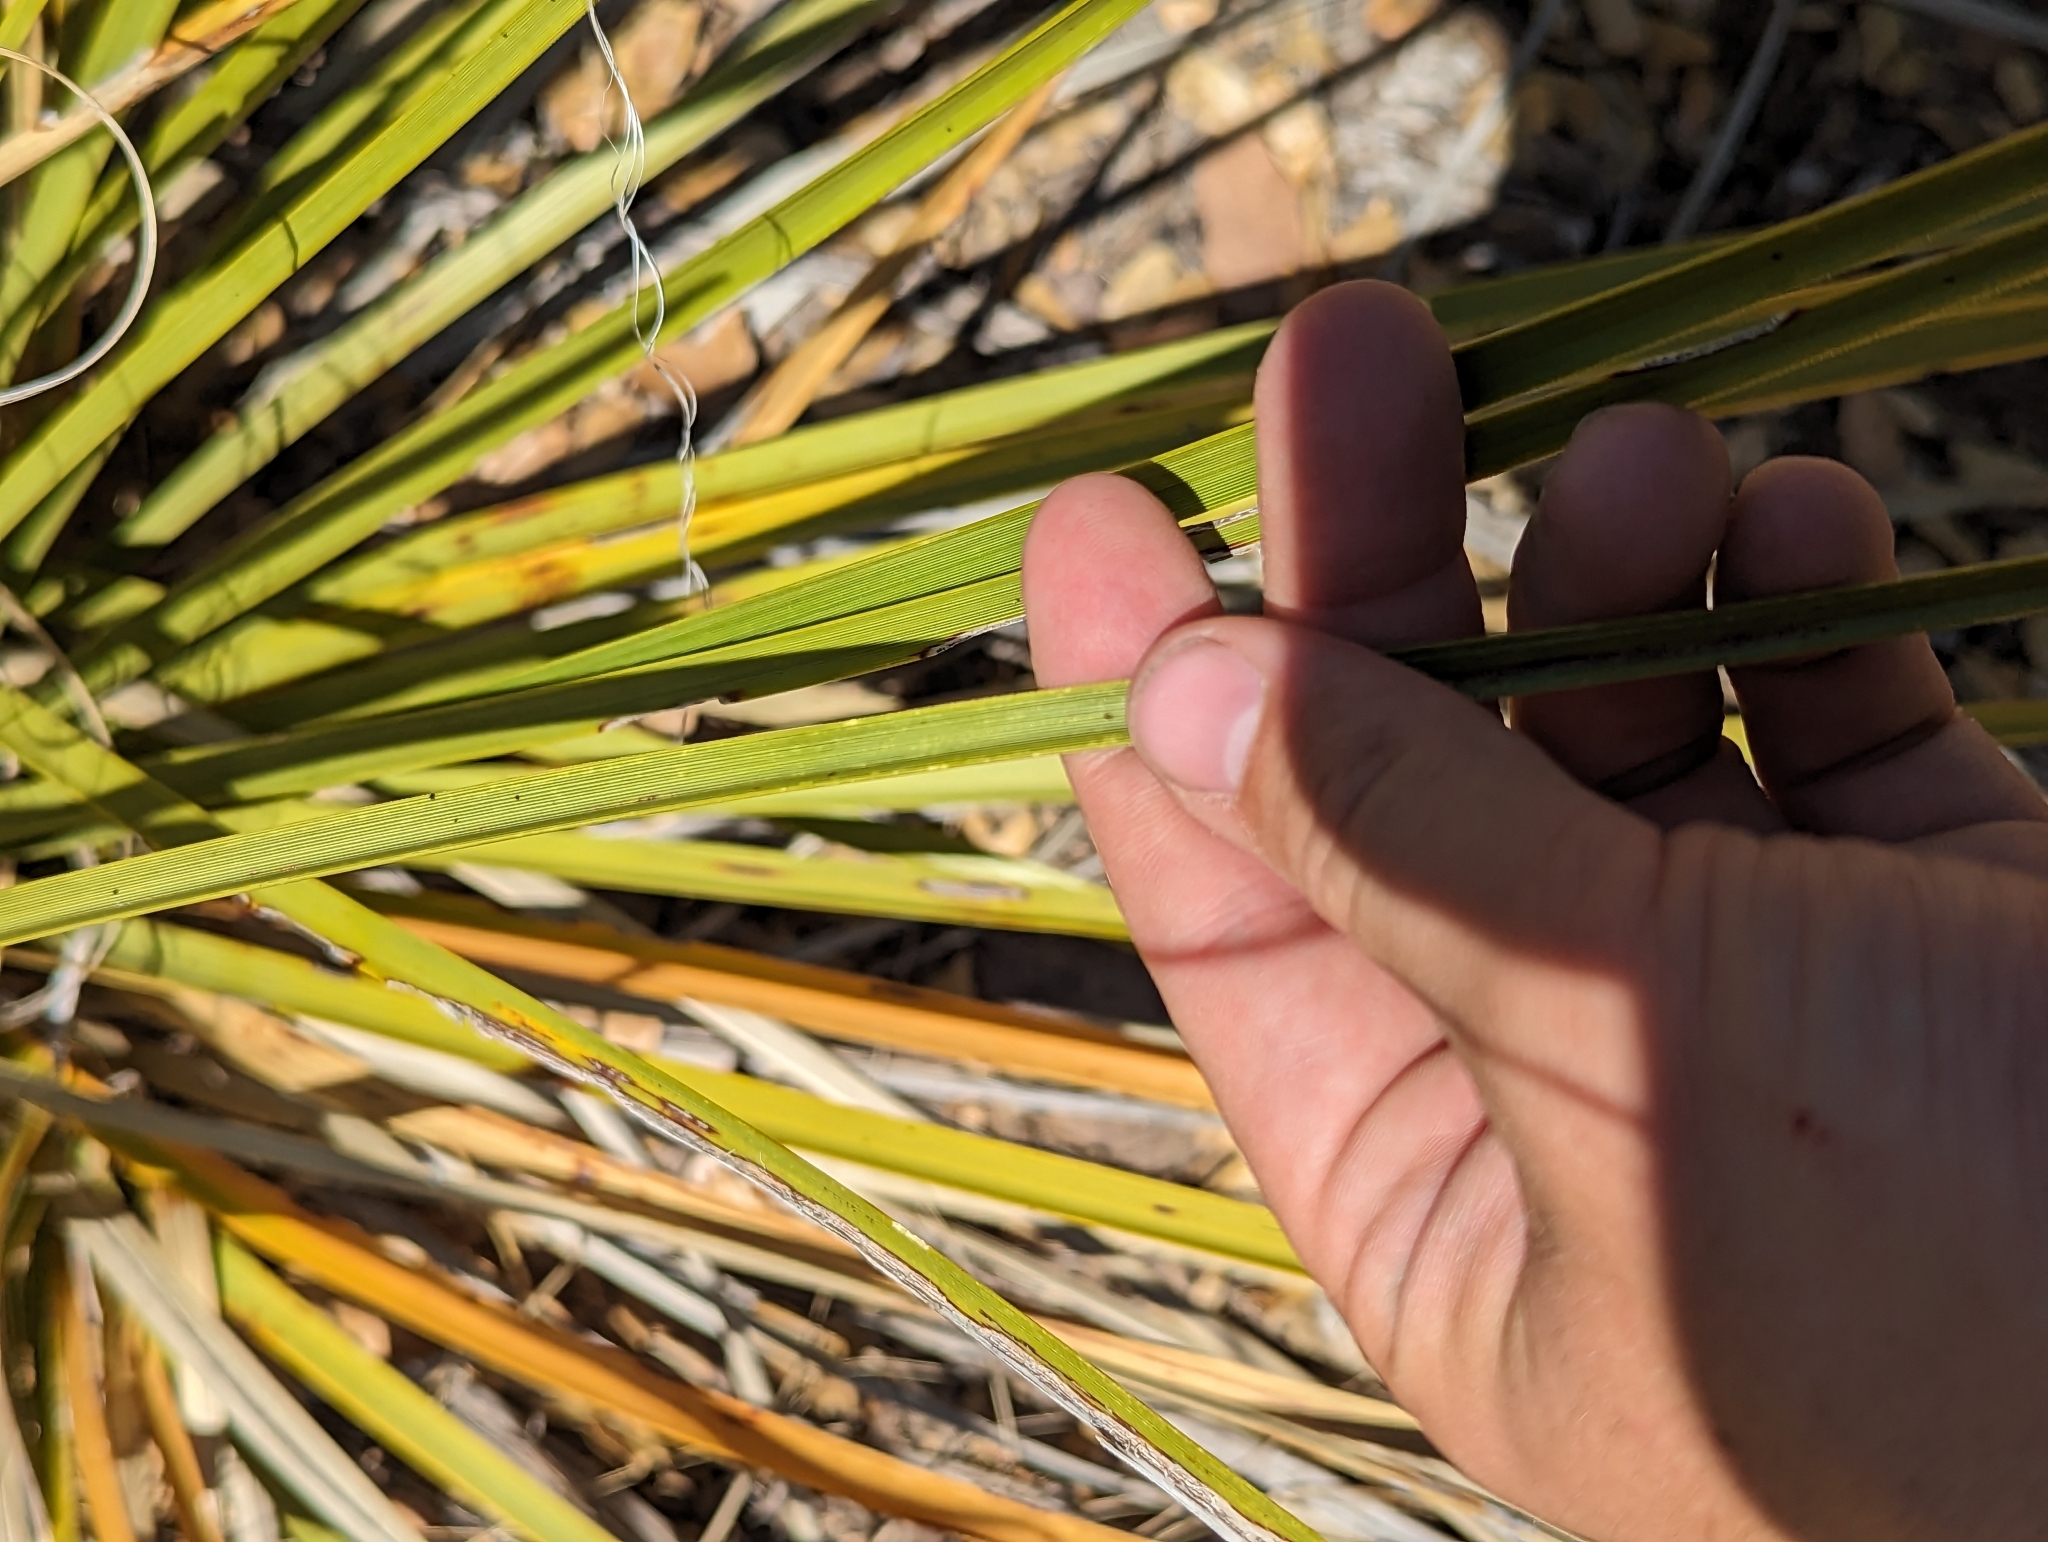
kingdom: Plantae
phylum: Tracheophyta
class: Liliopsida
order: Asparagales
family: Asparagaceae
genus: Nolina
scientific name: Nolina microcarpa
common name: Bear-grass
